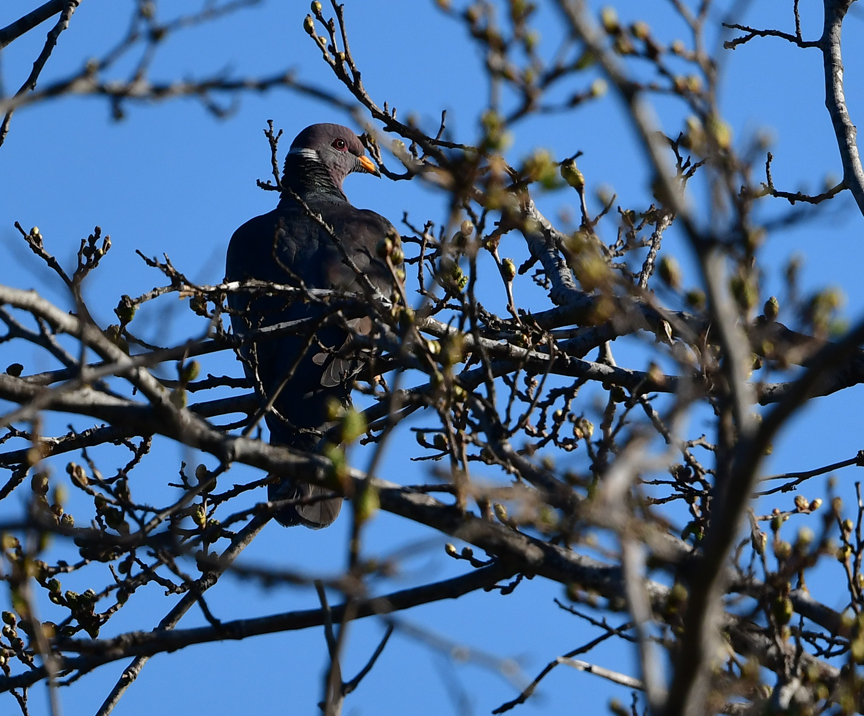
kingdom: Animalia
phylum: Chordata
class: Aves
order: Columbiformes
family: Columbidae
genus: Patagioenas
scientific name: Patagioenas fasciata
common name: Band-tailed pigeon
